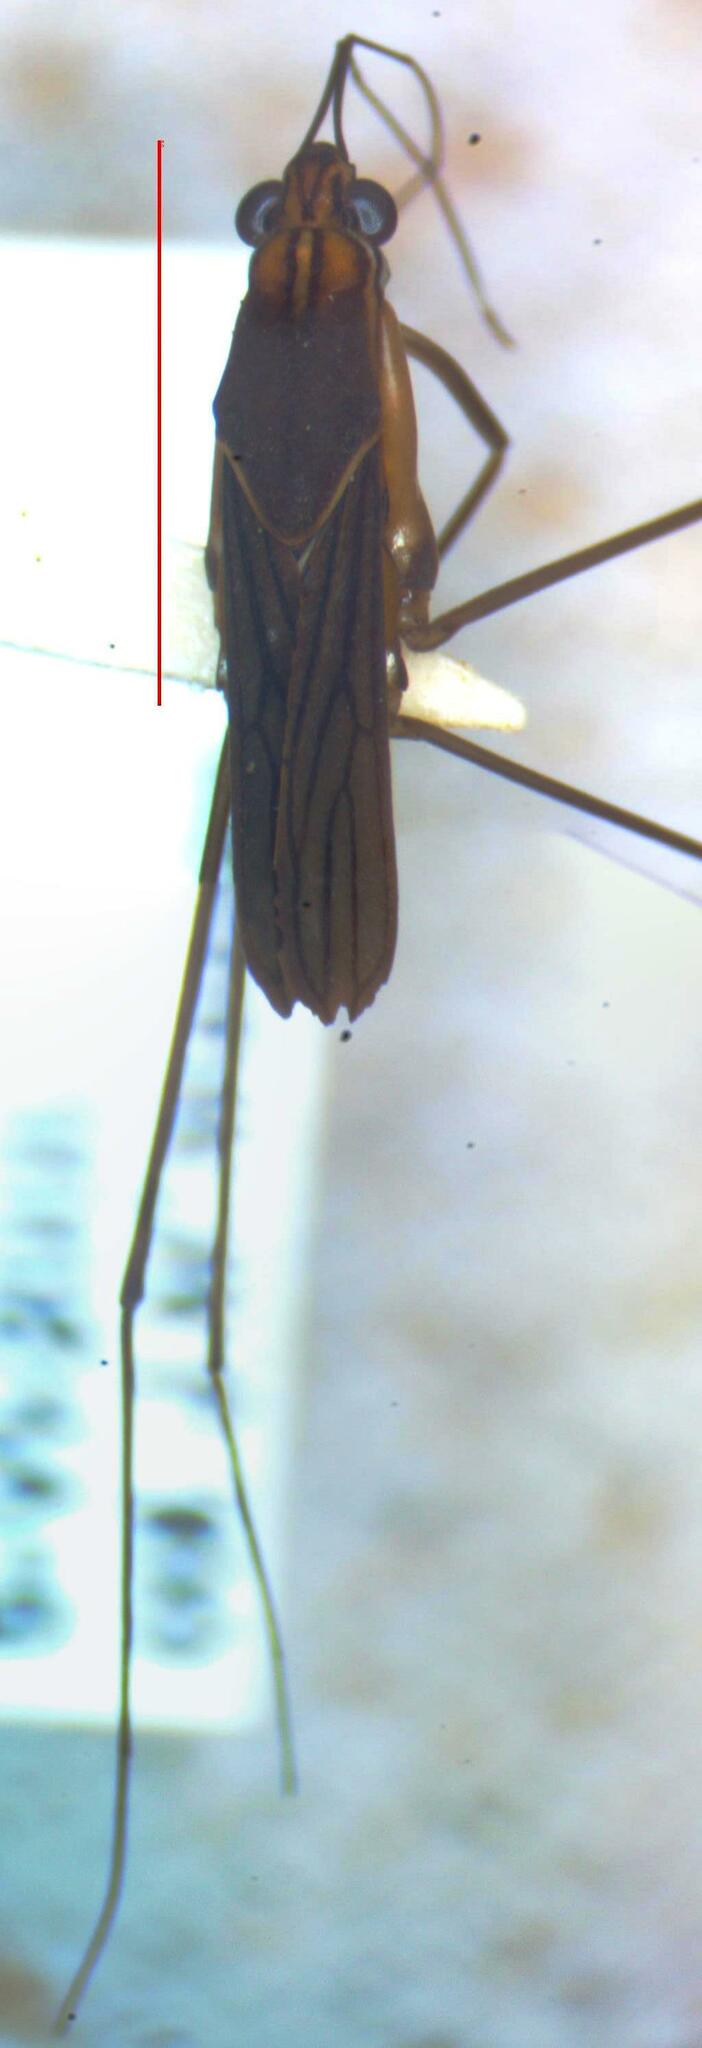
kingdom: Animalia
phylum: Arthropoda
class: Insecta
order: Hemiptera
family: Gerridae
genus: Tachygerris
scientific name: Tachygerris quadrilineatus
